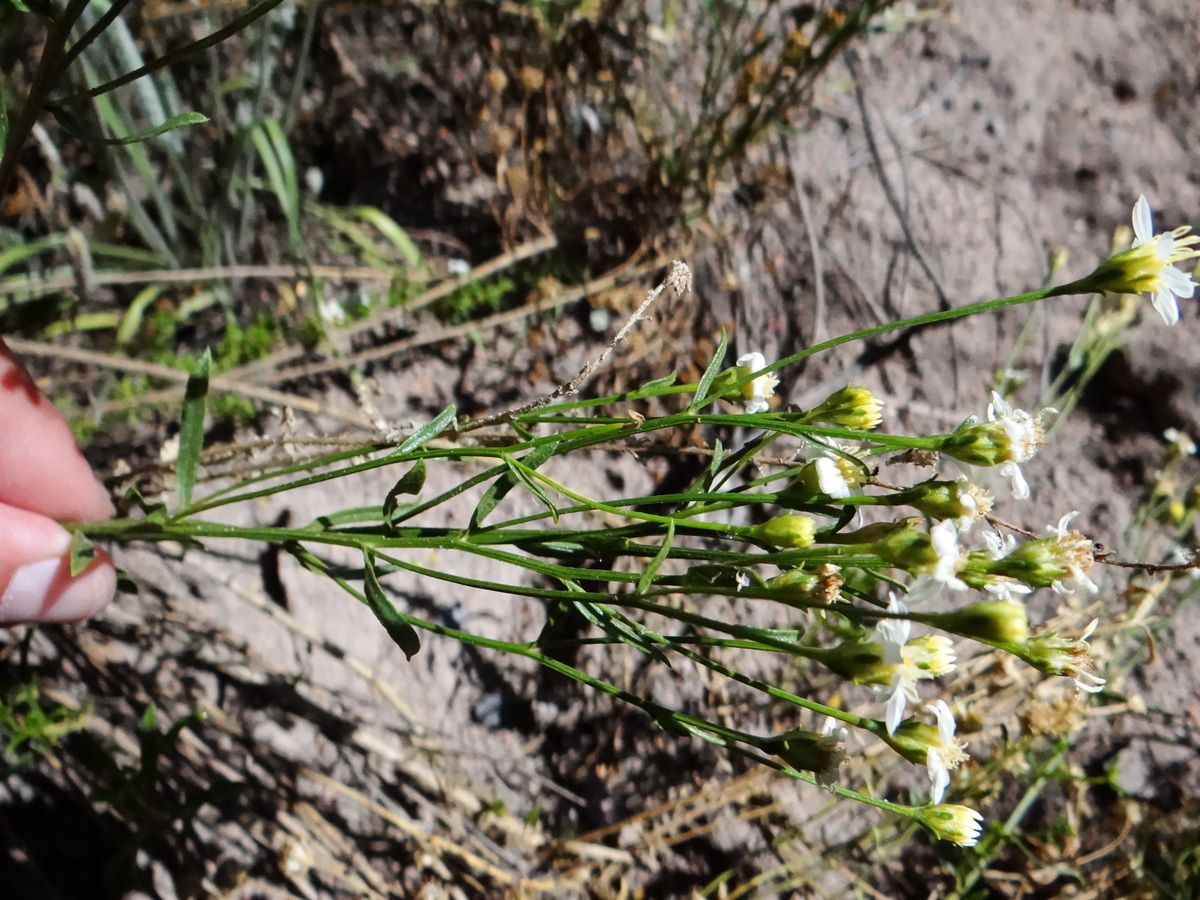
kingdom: Plantae
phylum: Tracheophyta
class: Magnoliopsida
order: Asterales
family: Asteraceae
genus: Gutierrezia
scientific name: Gutierrezia solbrigii
